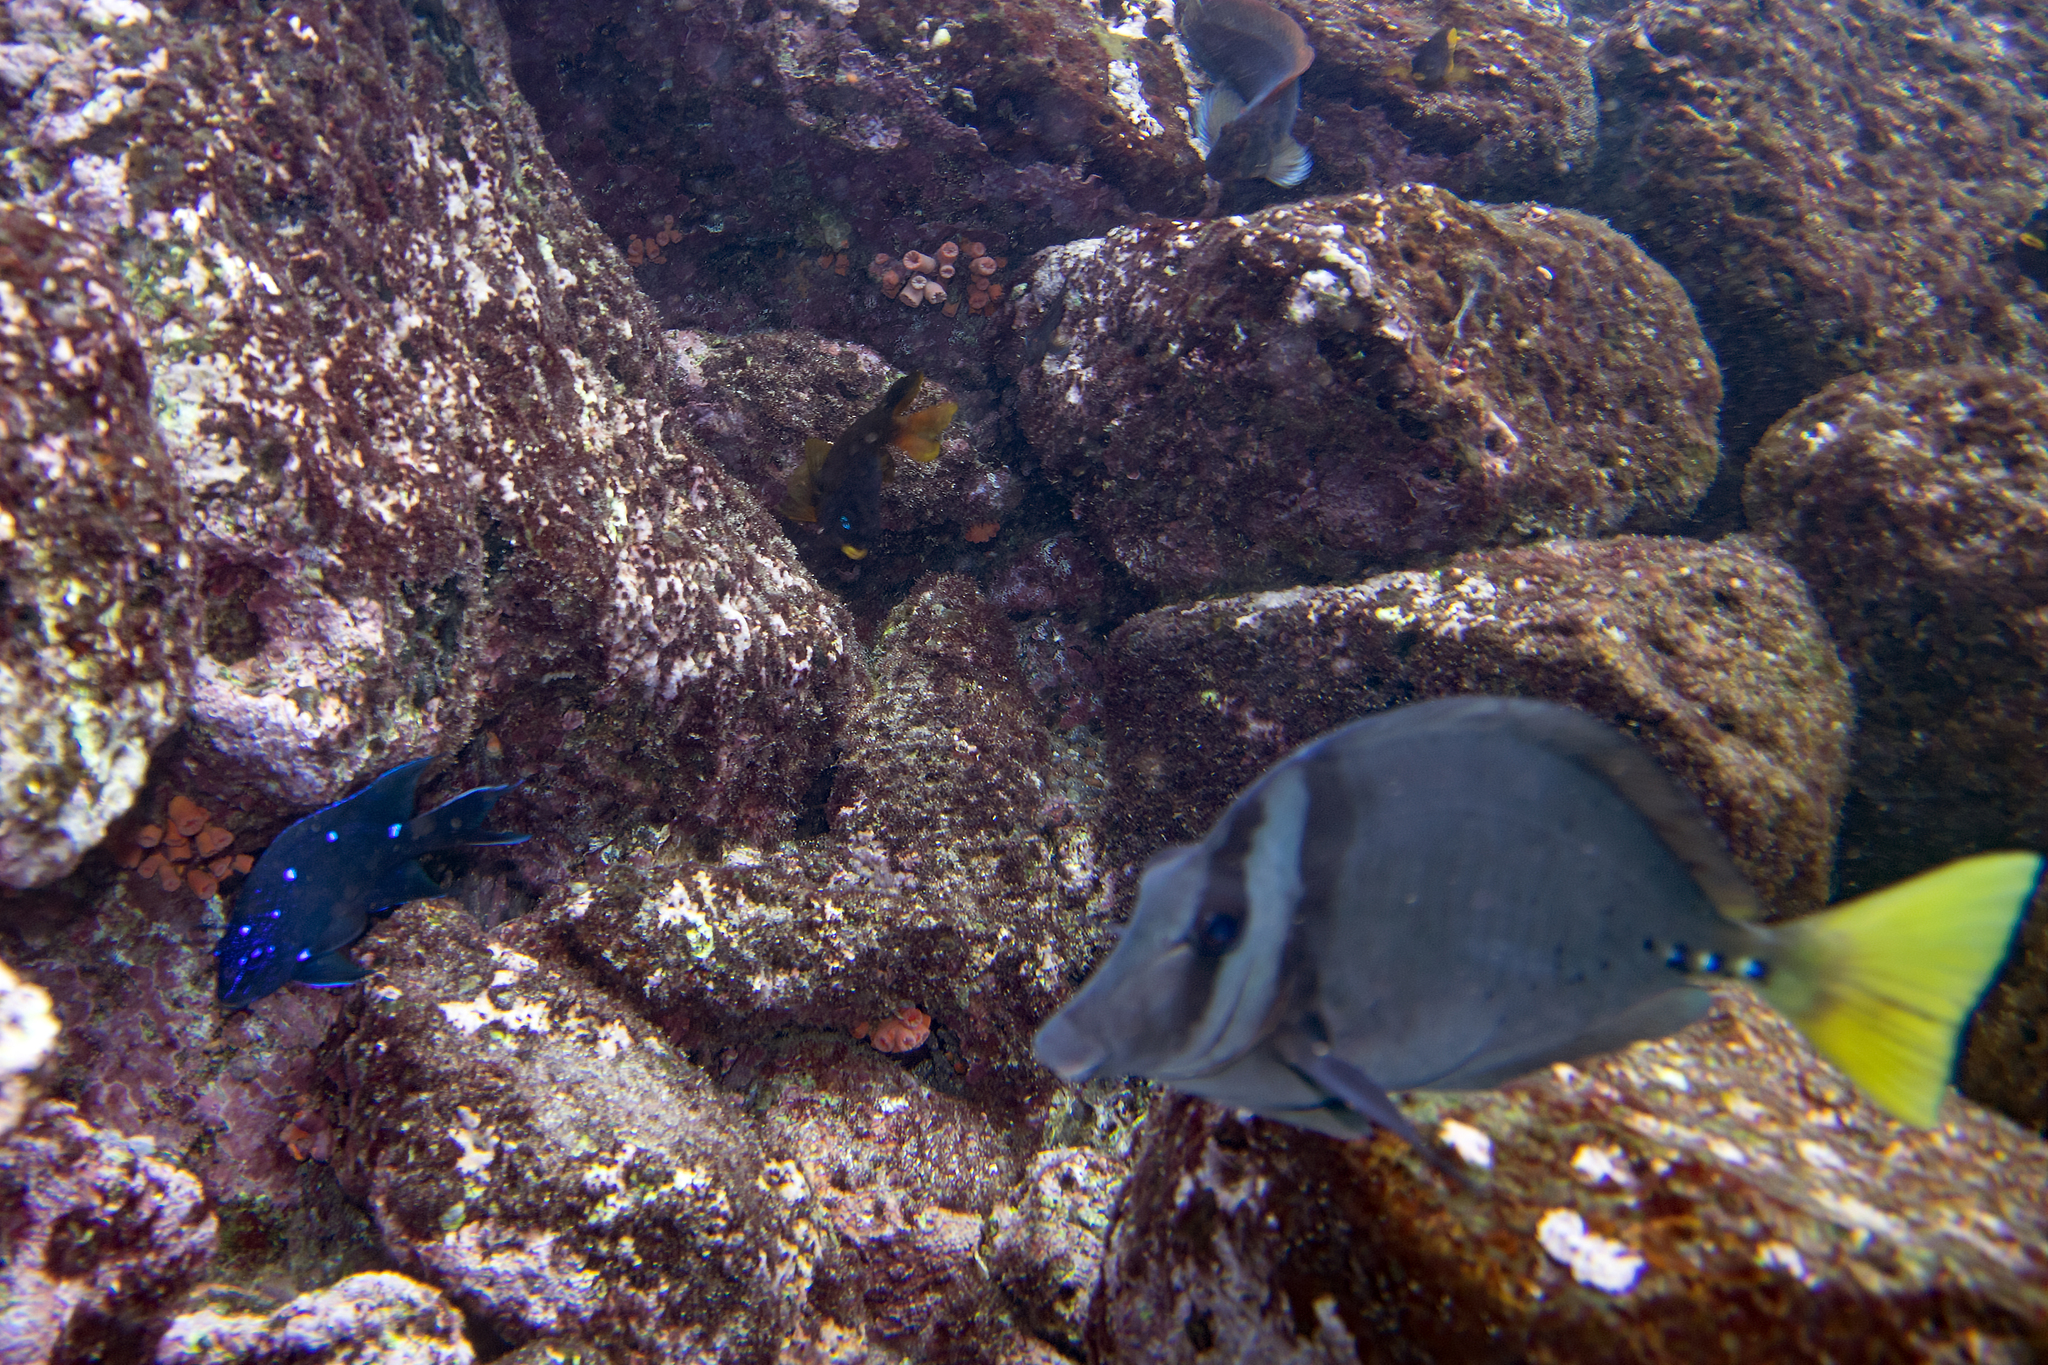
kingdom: Animalia
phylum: Chordata
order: Perciformes
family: Pomacentridae
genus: Microspathodon
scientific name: Microspathodon dorsalis
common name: Giant damselfish
